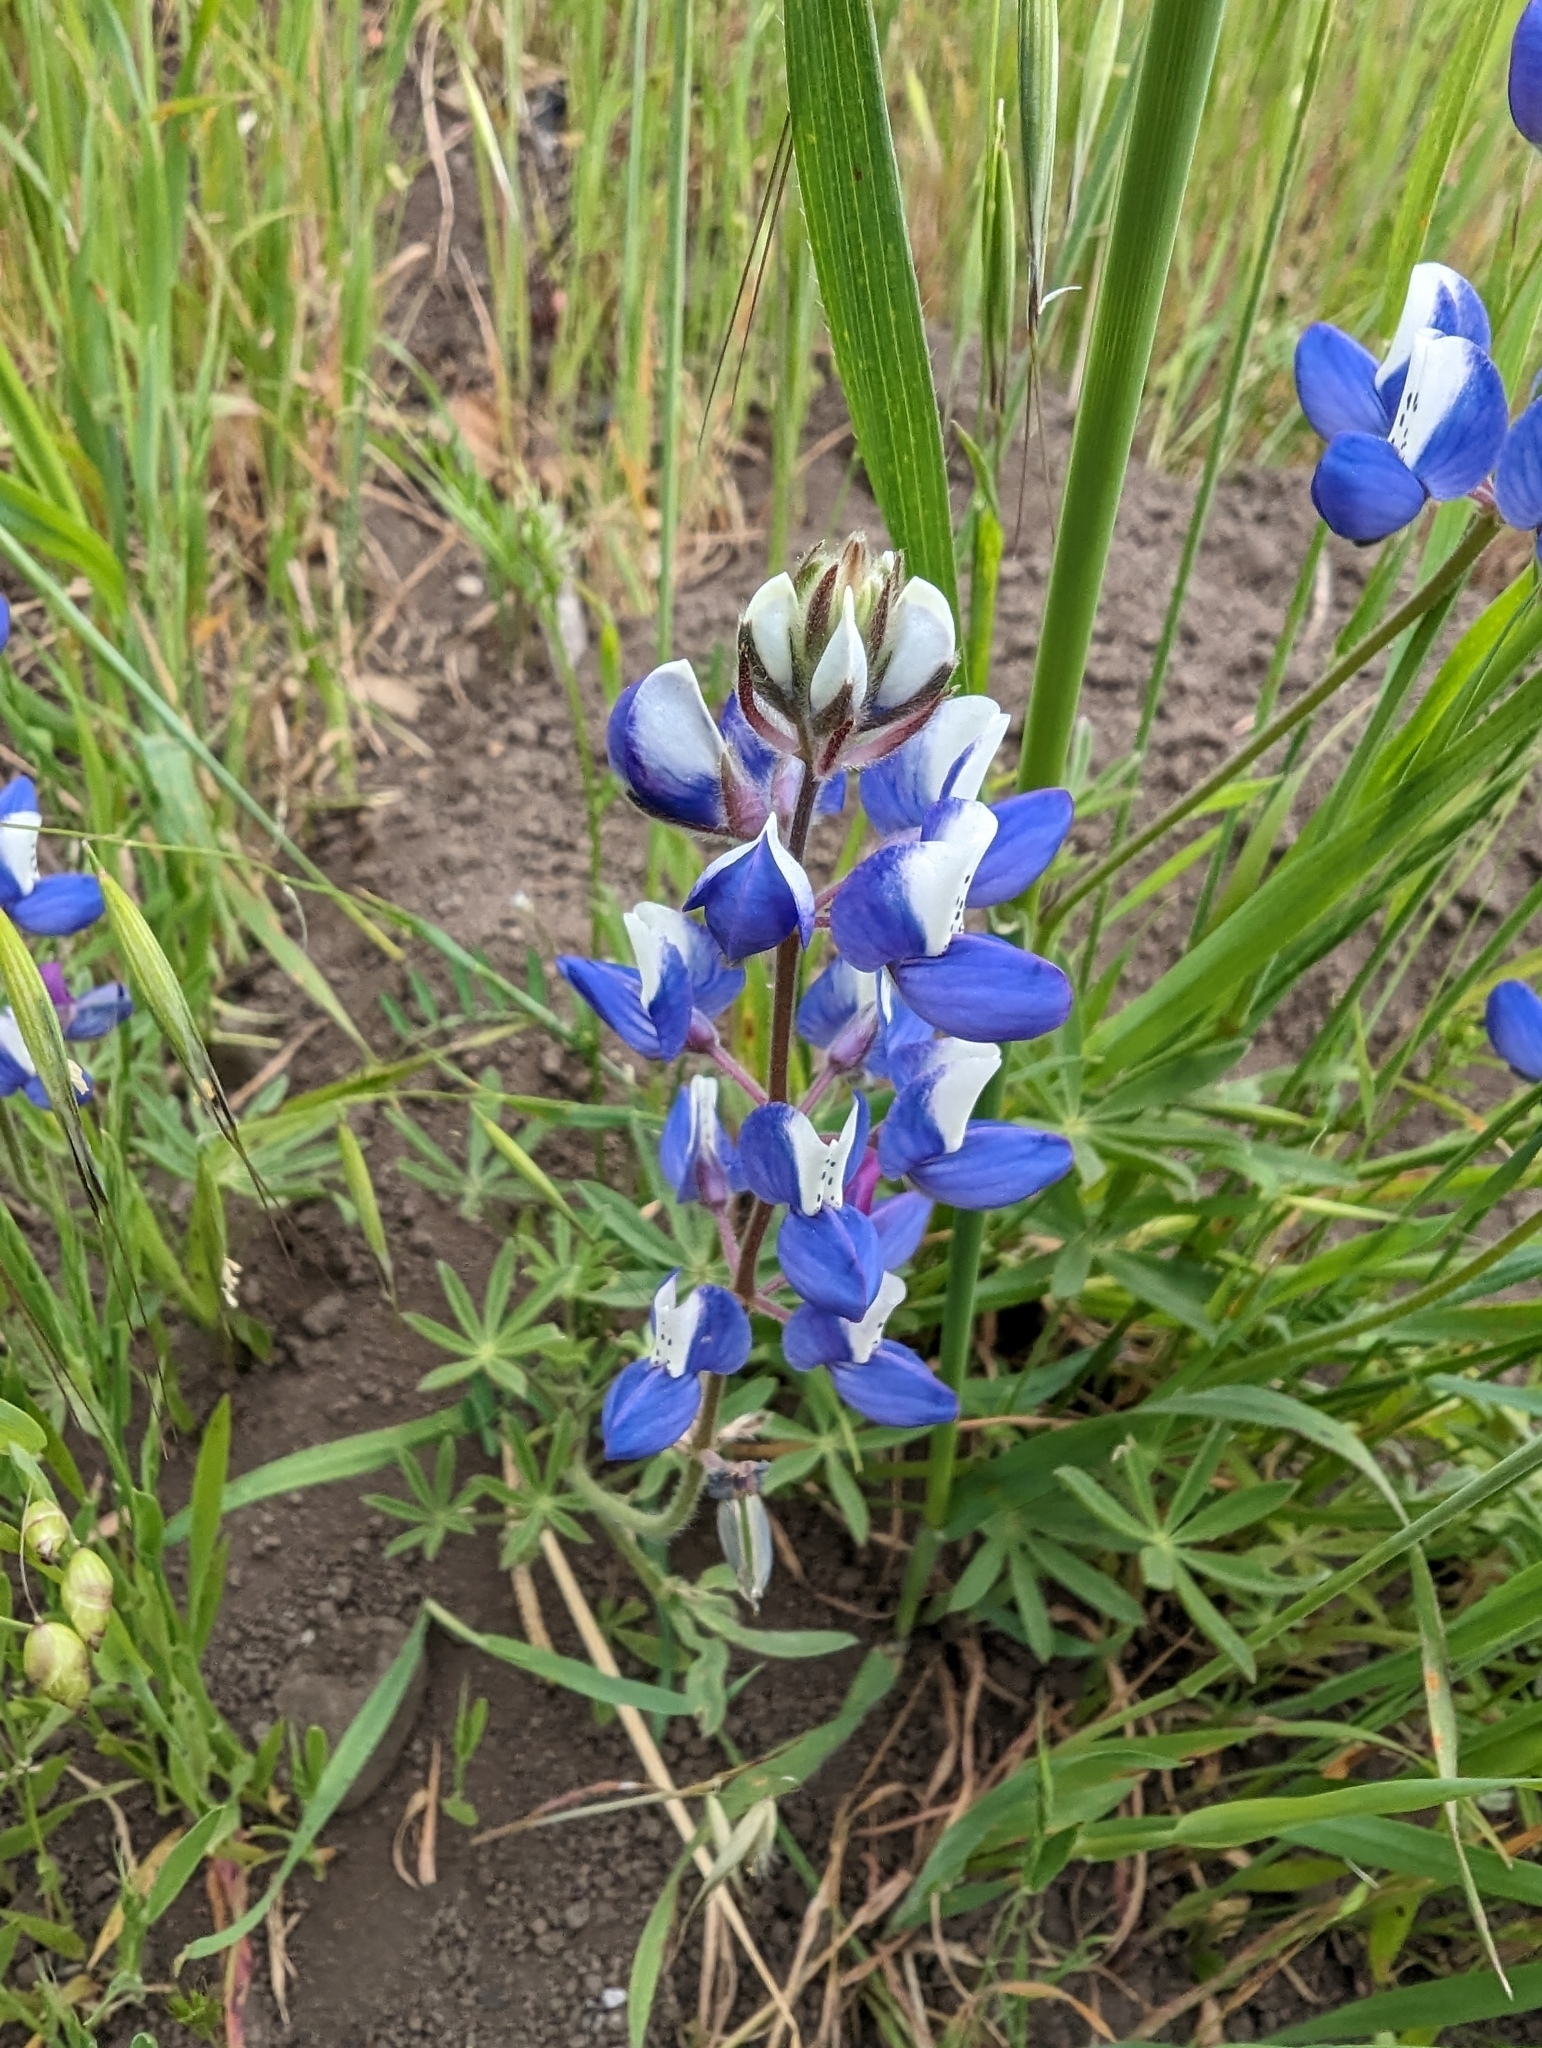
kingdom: Plantae
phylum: Tracheophyta
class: Magnoliopsida
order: Fabales
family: Fabaceae
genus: Lupinus
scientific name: Lupinus nanus
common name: Orean blue lupin
